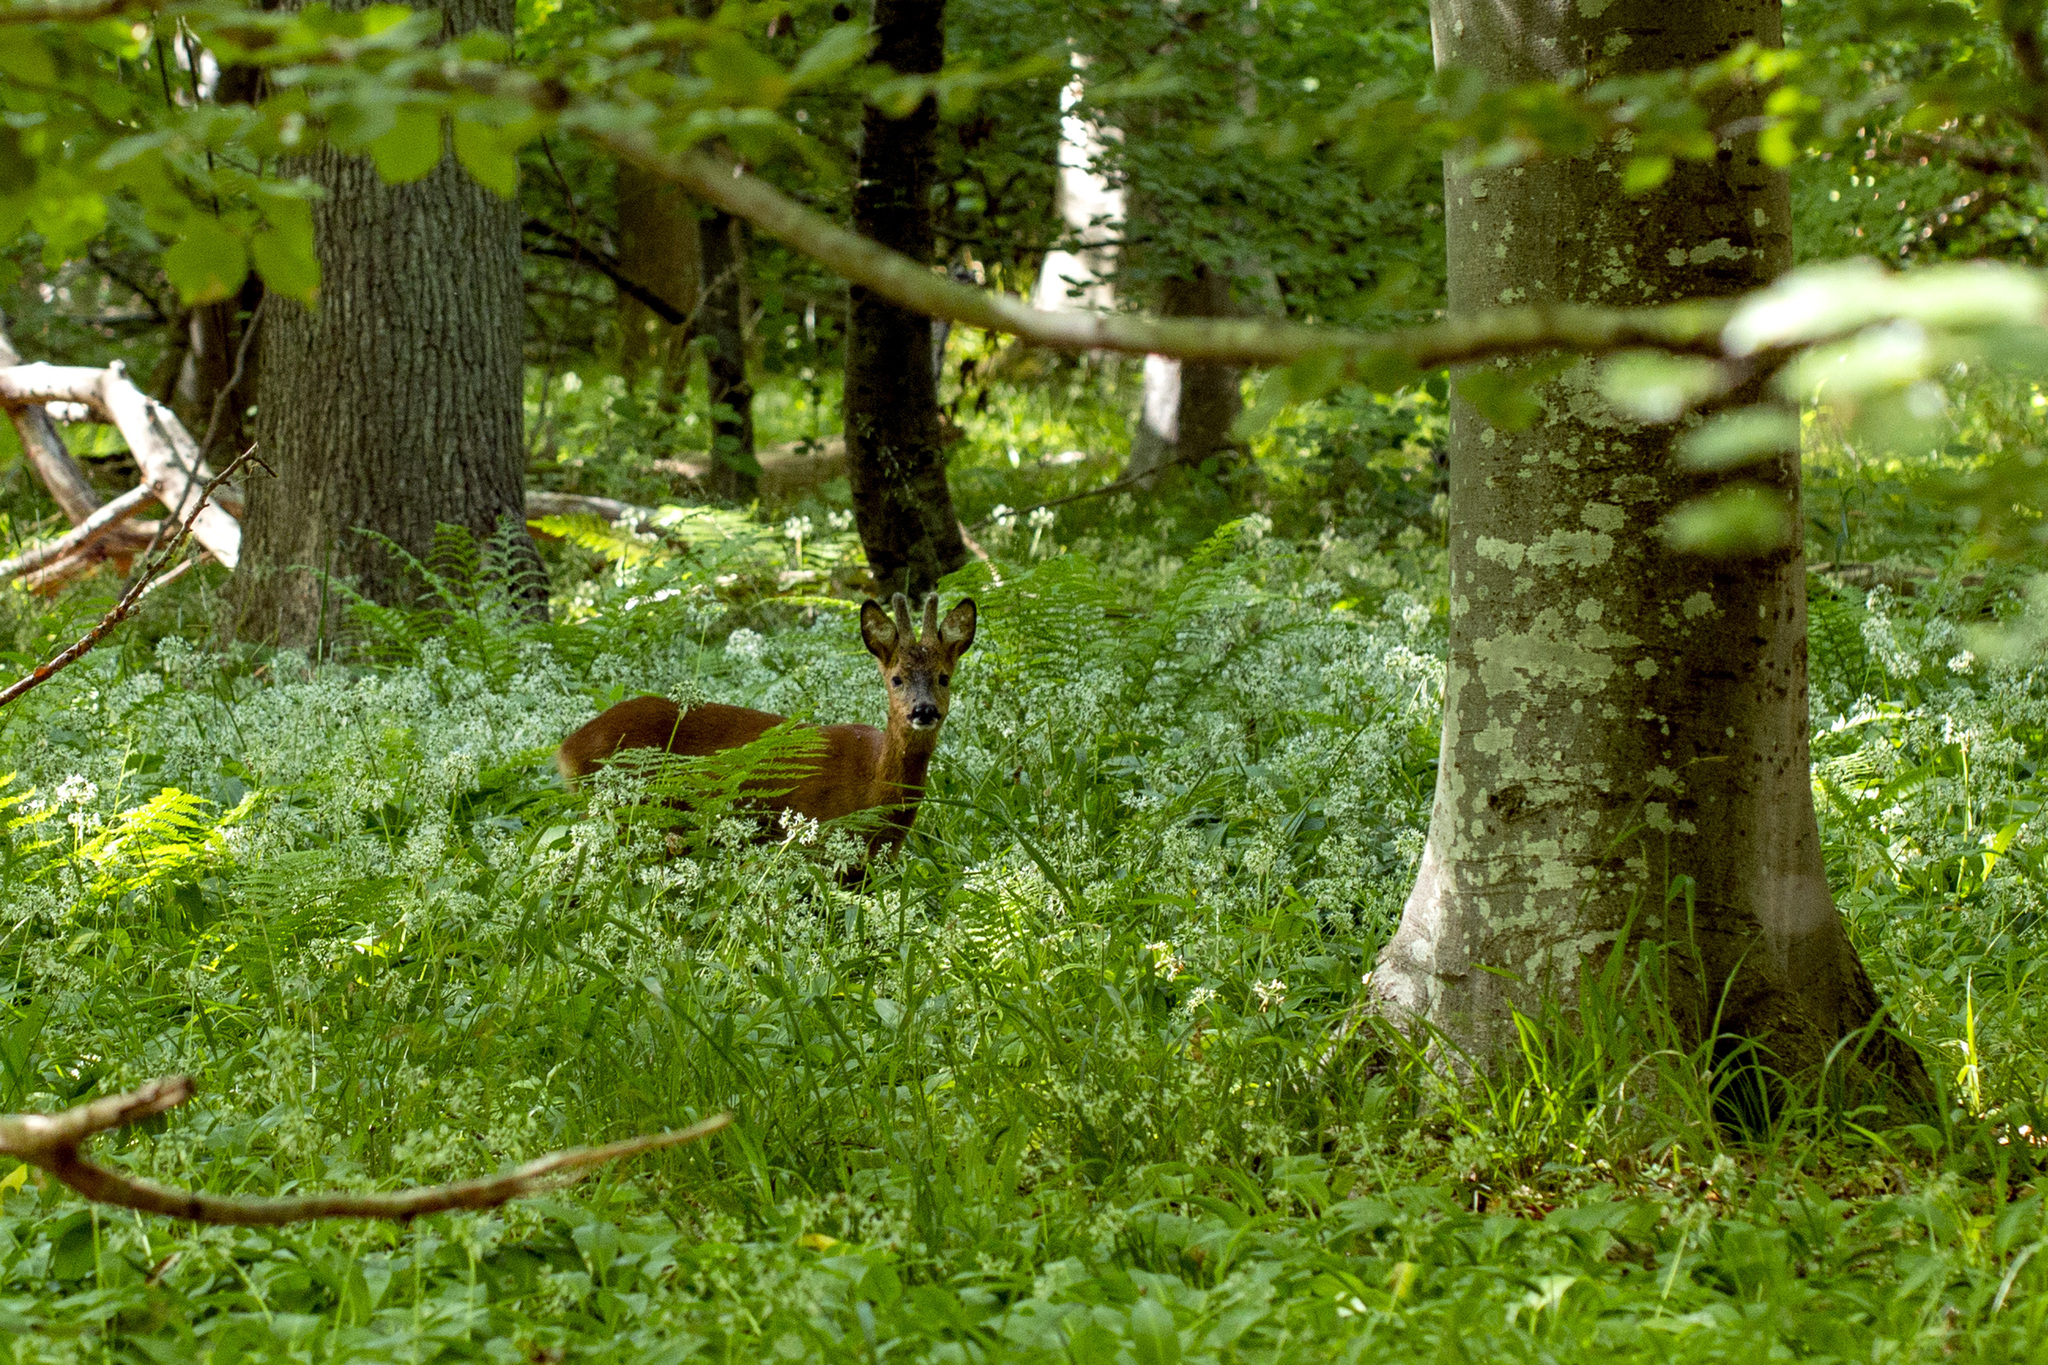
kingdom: Animalia
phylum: Chordata
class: Mammalia
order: Artiodactyla
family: Cervidae
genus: Capreolus
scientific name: Capreolus capreolus
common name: Western roe deer
